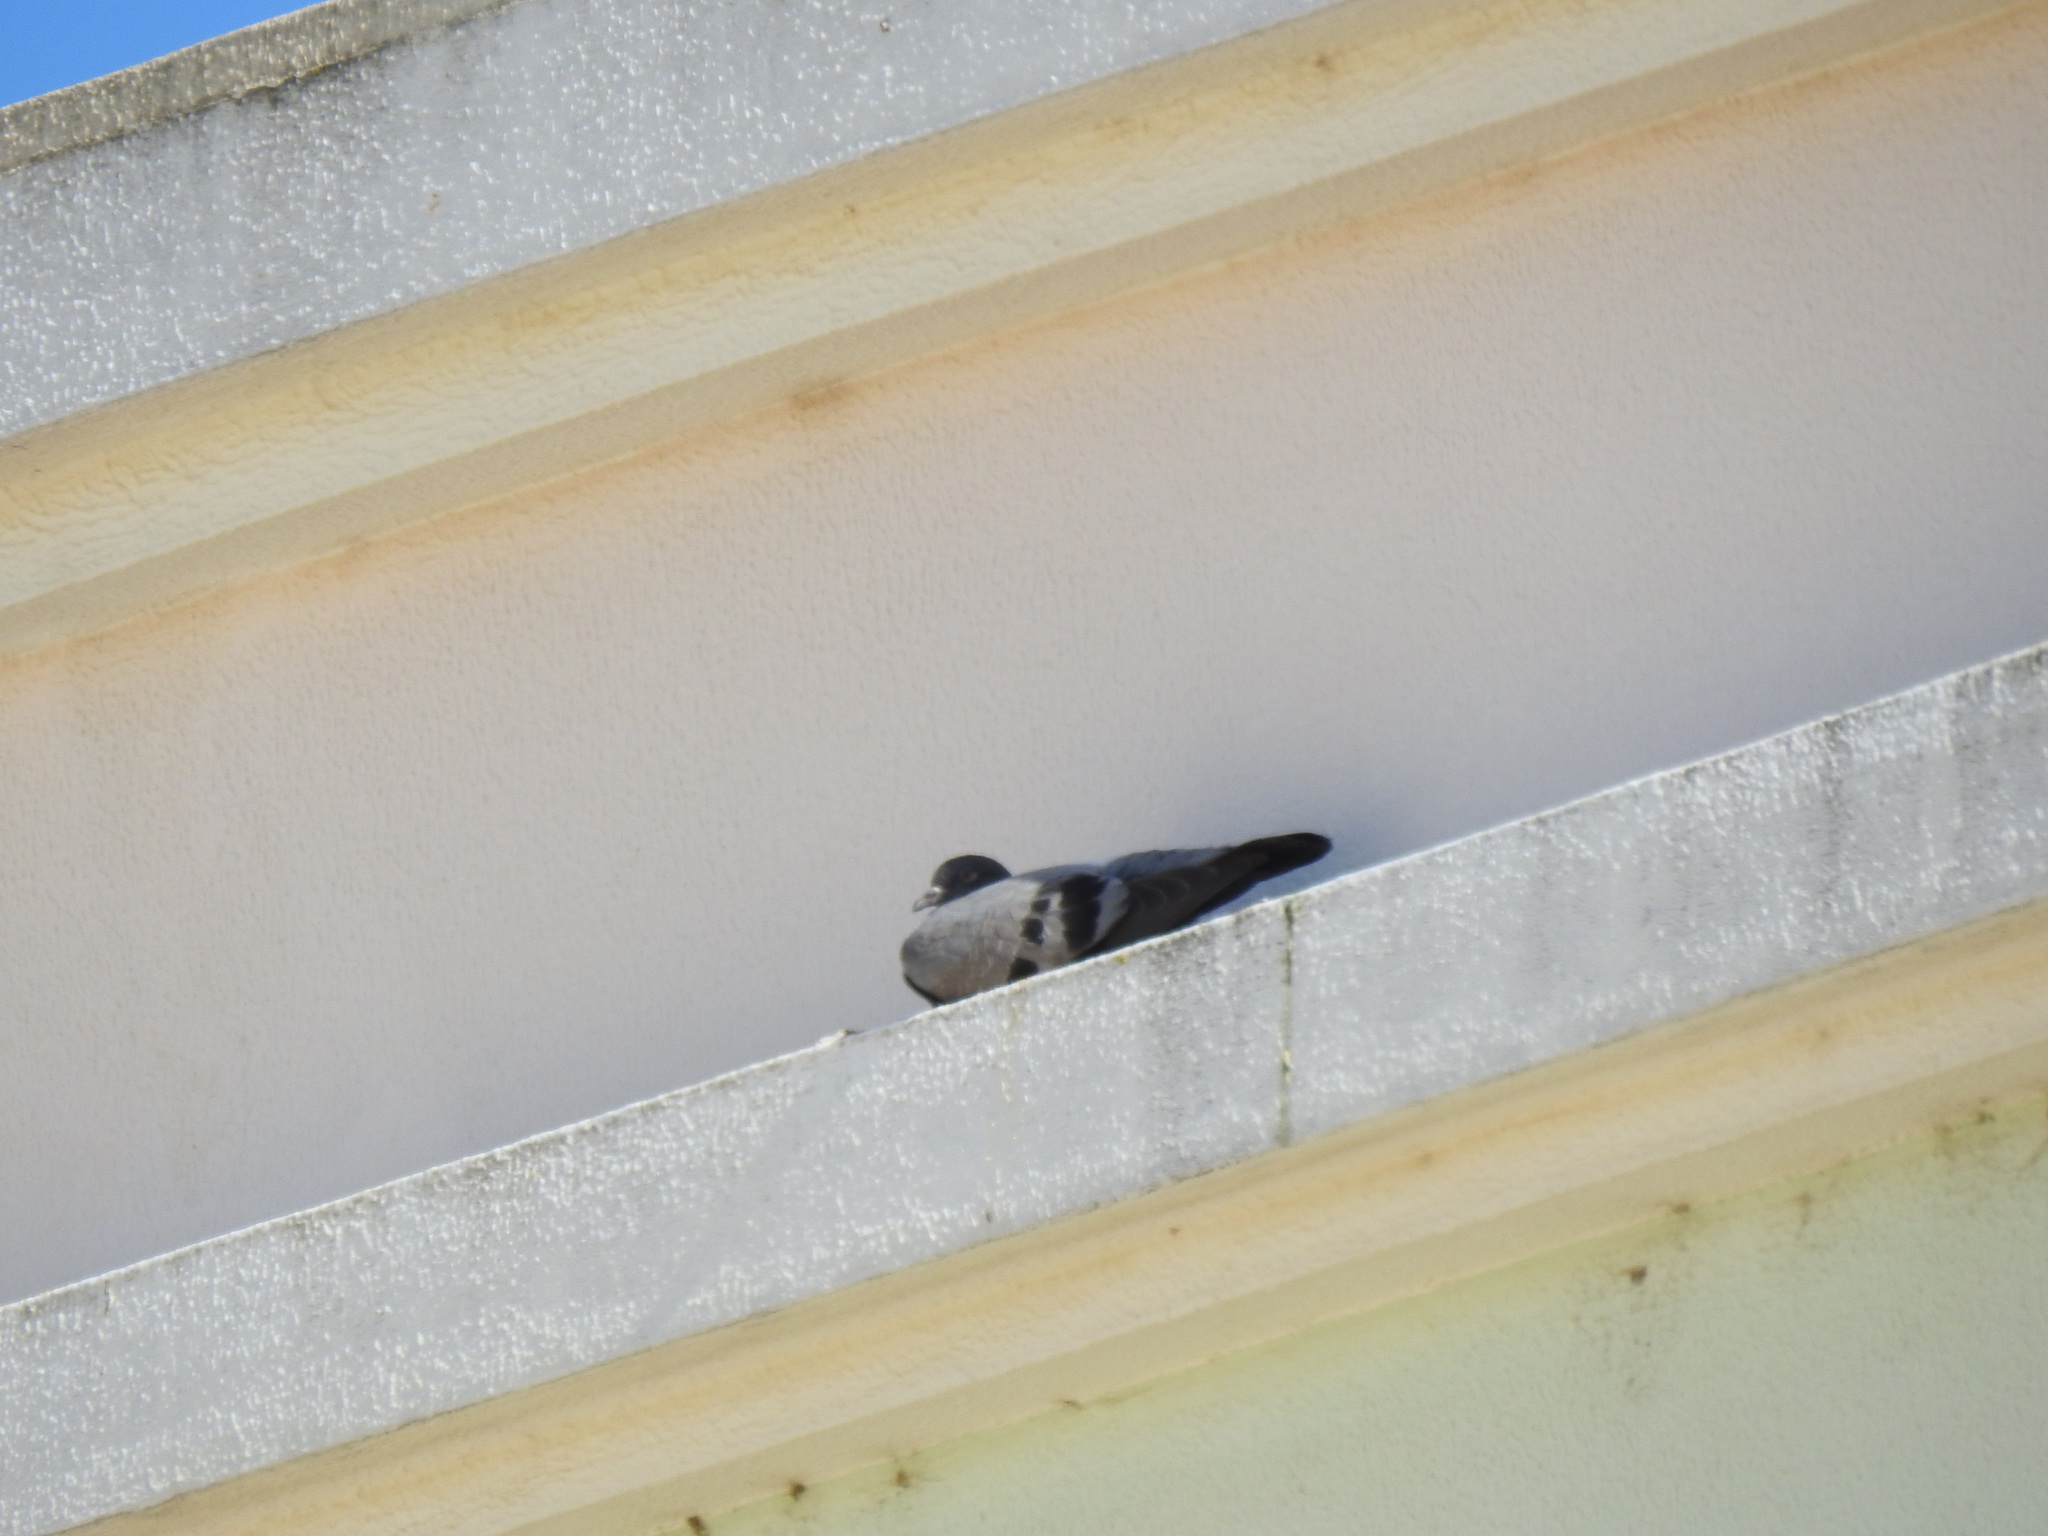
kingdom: Animalia
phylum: Chordata
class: Aves
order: Columbiformes
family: Columbidae
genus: Columba
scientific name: Columba livia
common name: Rock pigeon
